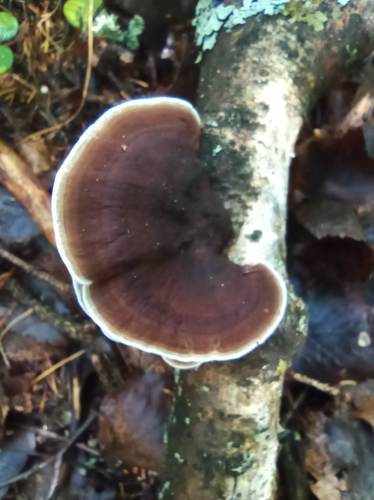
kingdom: Fungi
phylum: Basidiomycota
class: Agaricomycetes
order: Polyporales
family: Polyporaceae
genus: Daedaleopsis
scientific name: Daedaleopsis septentrionalis
